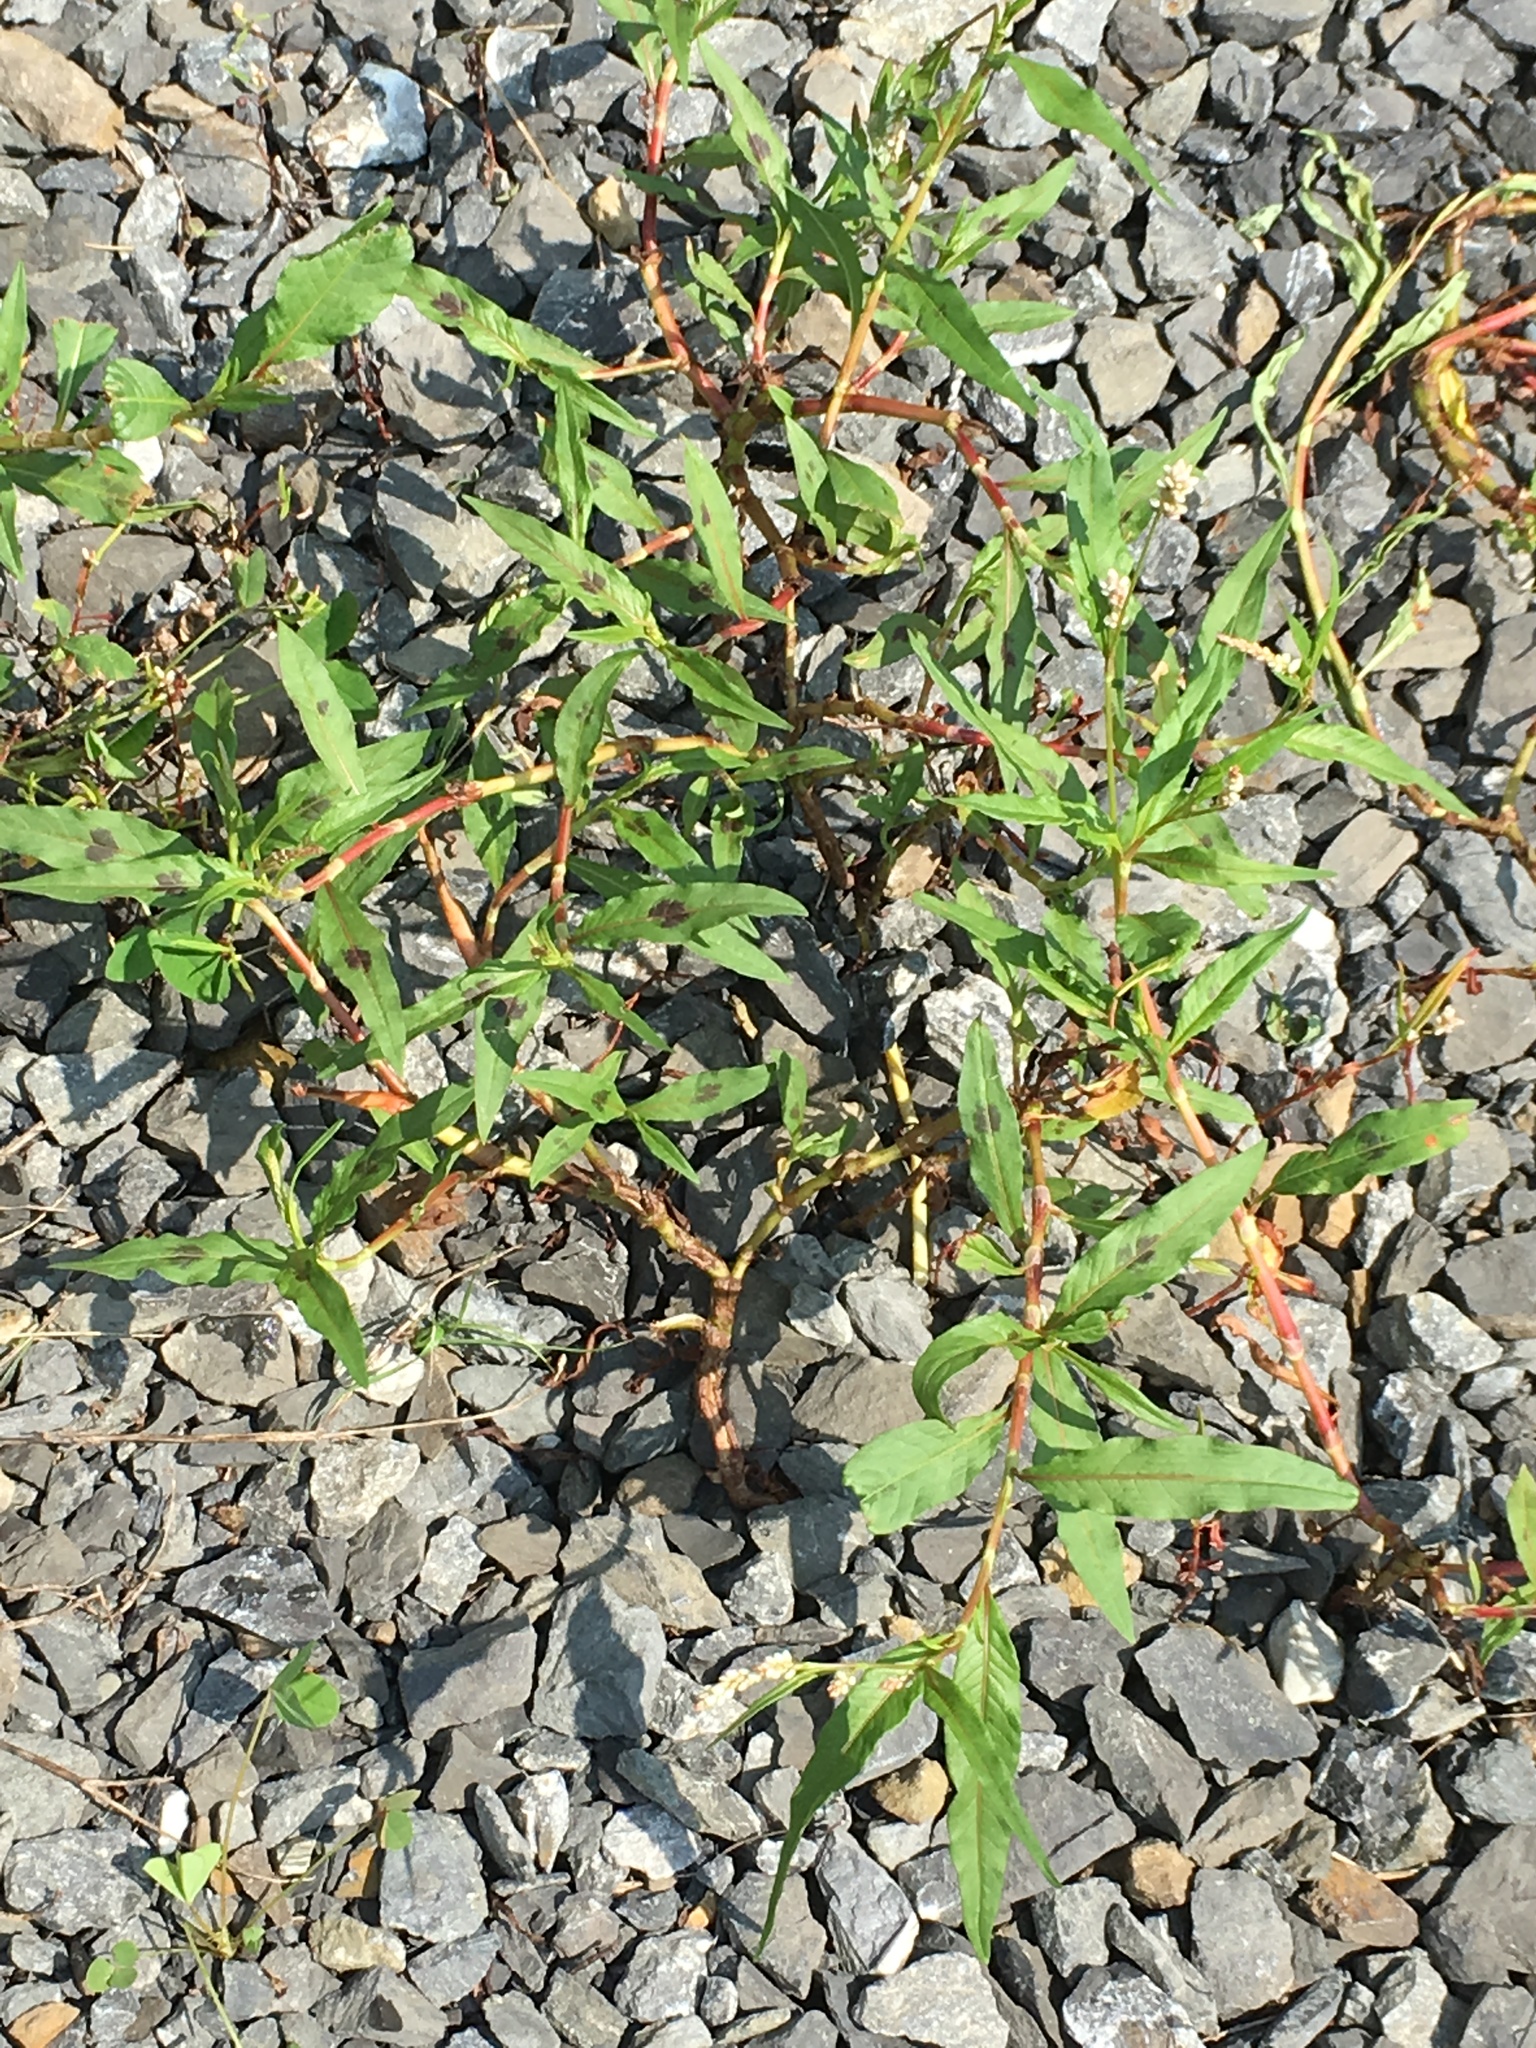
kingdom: Plantae
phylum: Tracheophyta
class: Magnoliopsida
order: Caryophyllales
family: Polygonaceae
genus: Persicaria
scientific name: Persicaria maculosa
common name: Redshank
